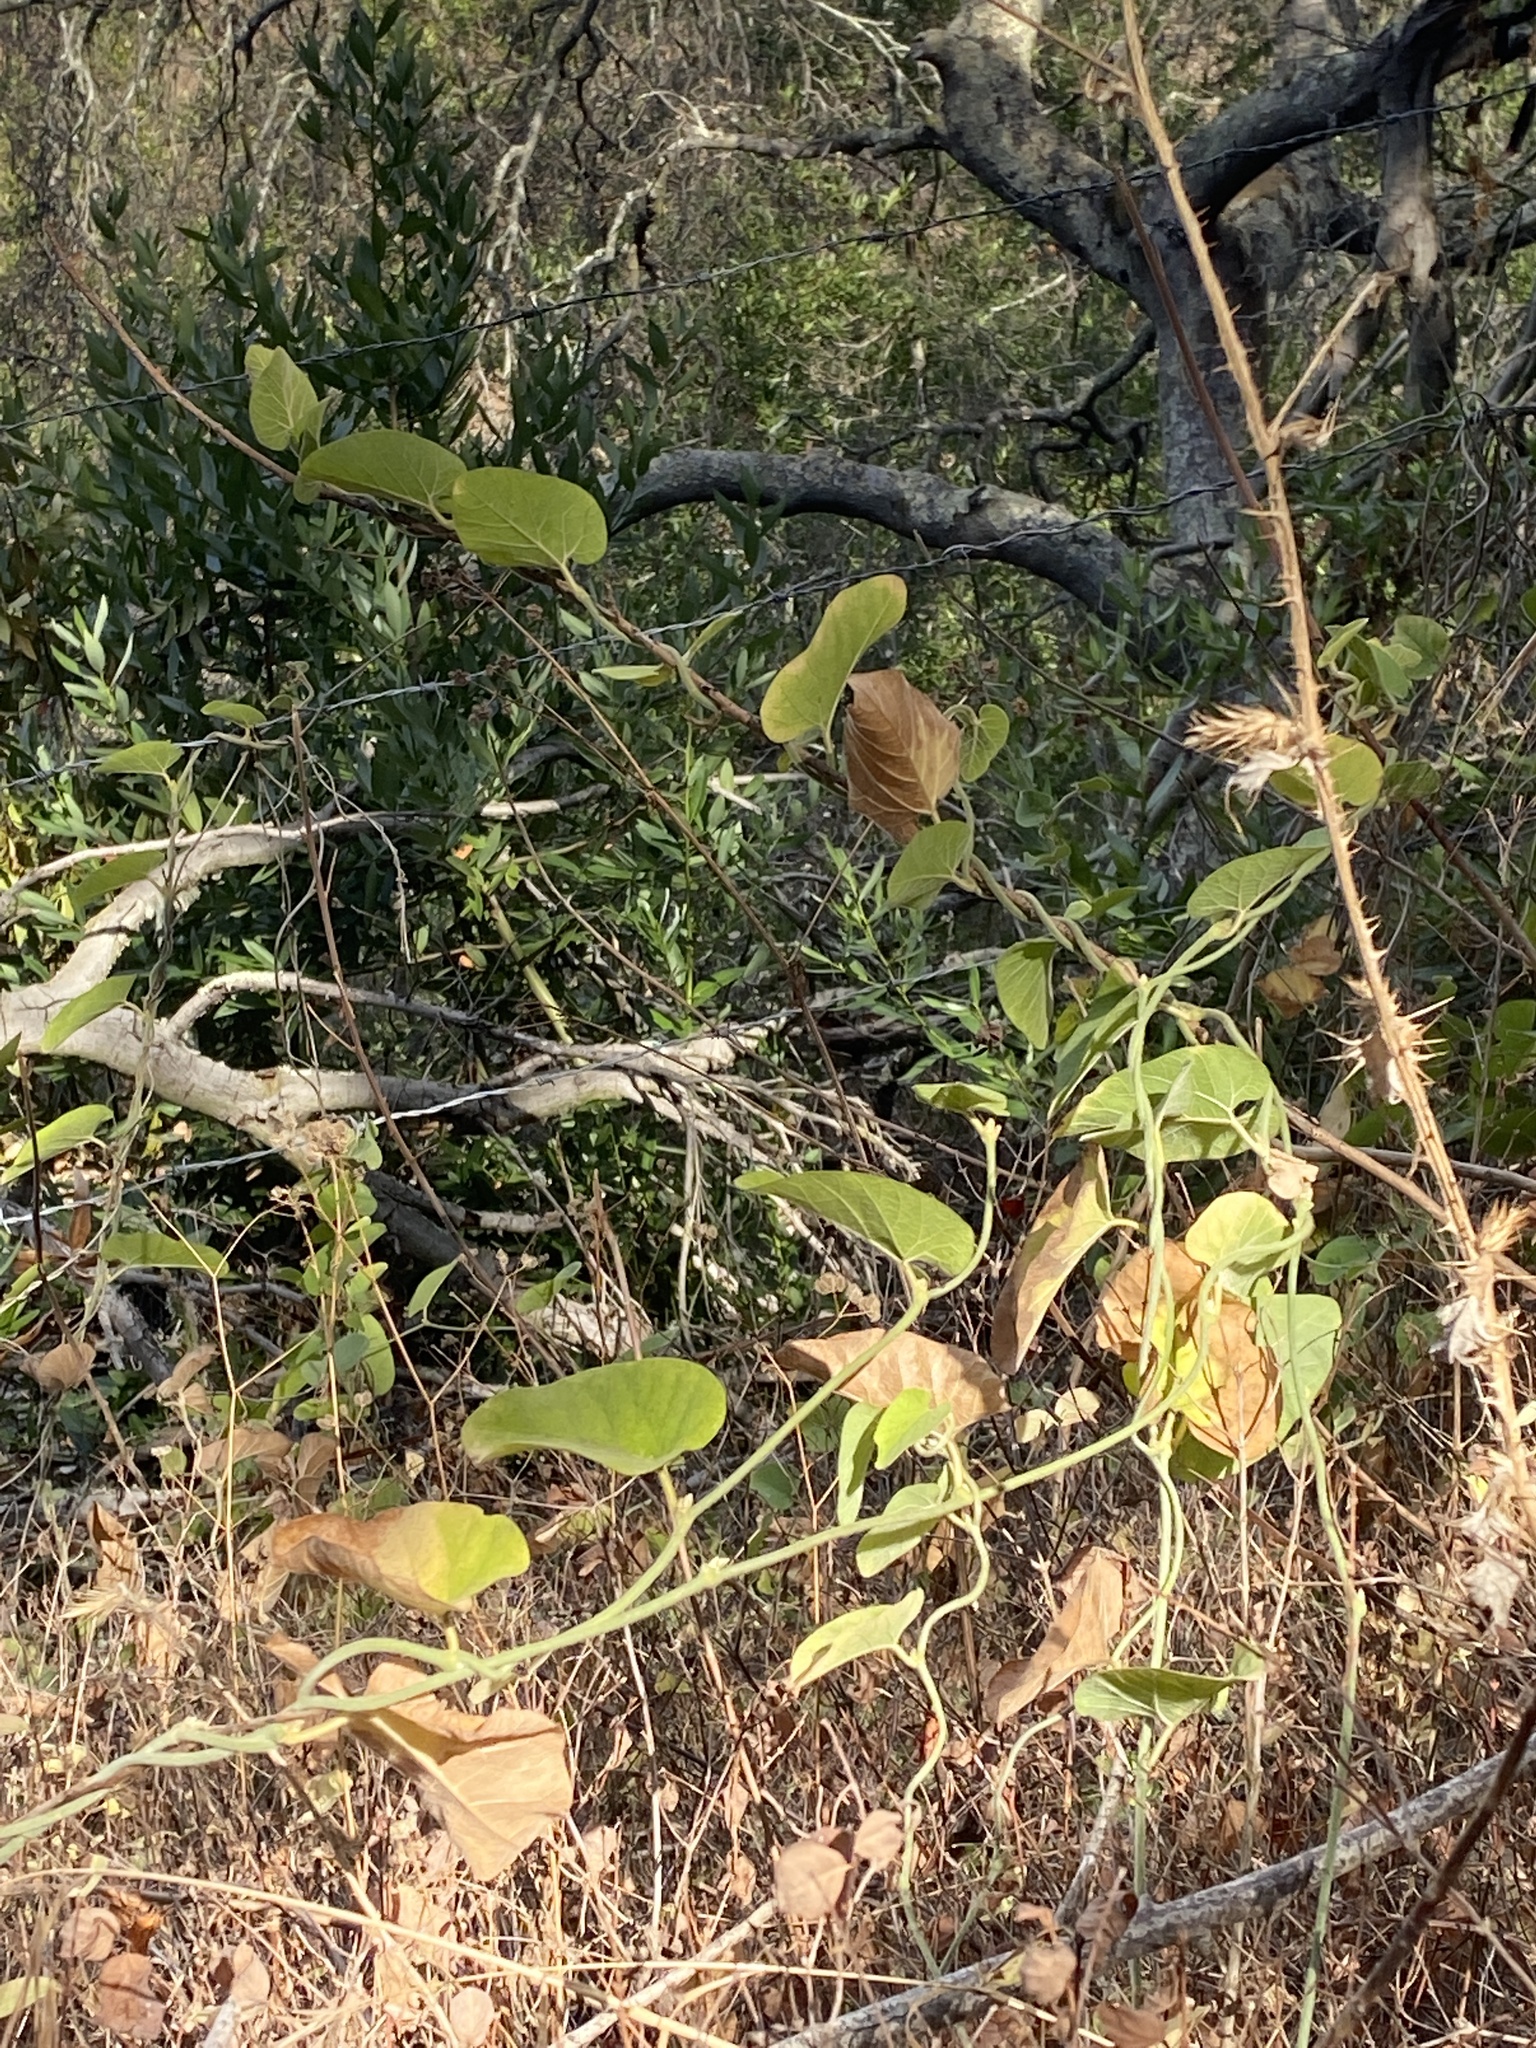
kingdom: Plantae
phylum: Tracheophyta
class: Magnoliopsida
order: Piperales
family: Aristolochiaceae
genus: Isotrema
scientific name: Isotrema californicum
